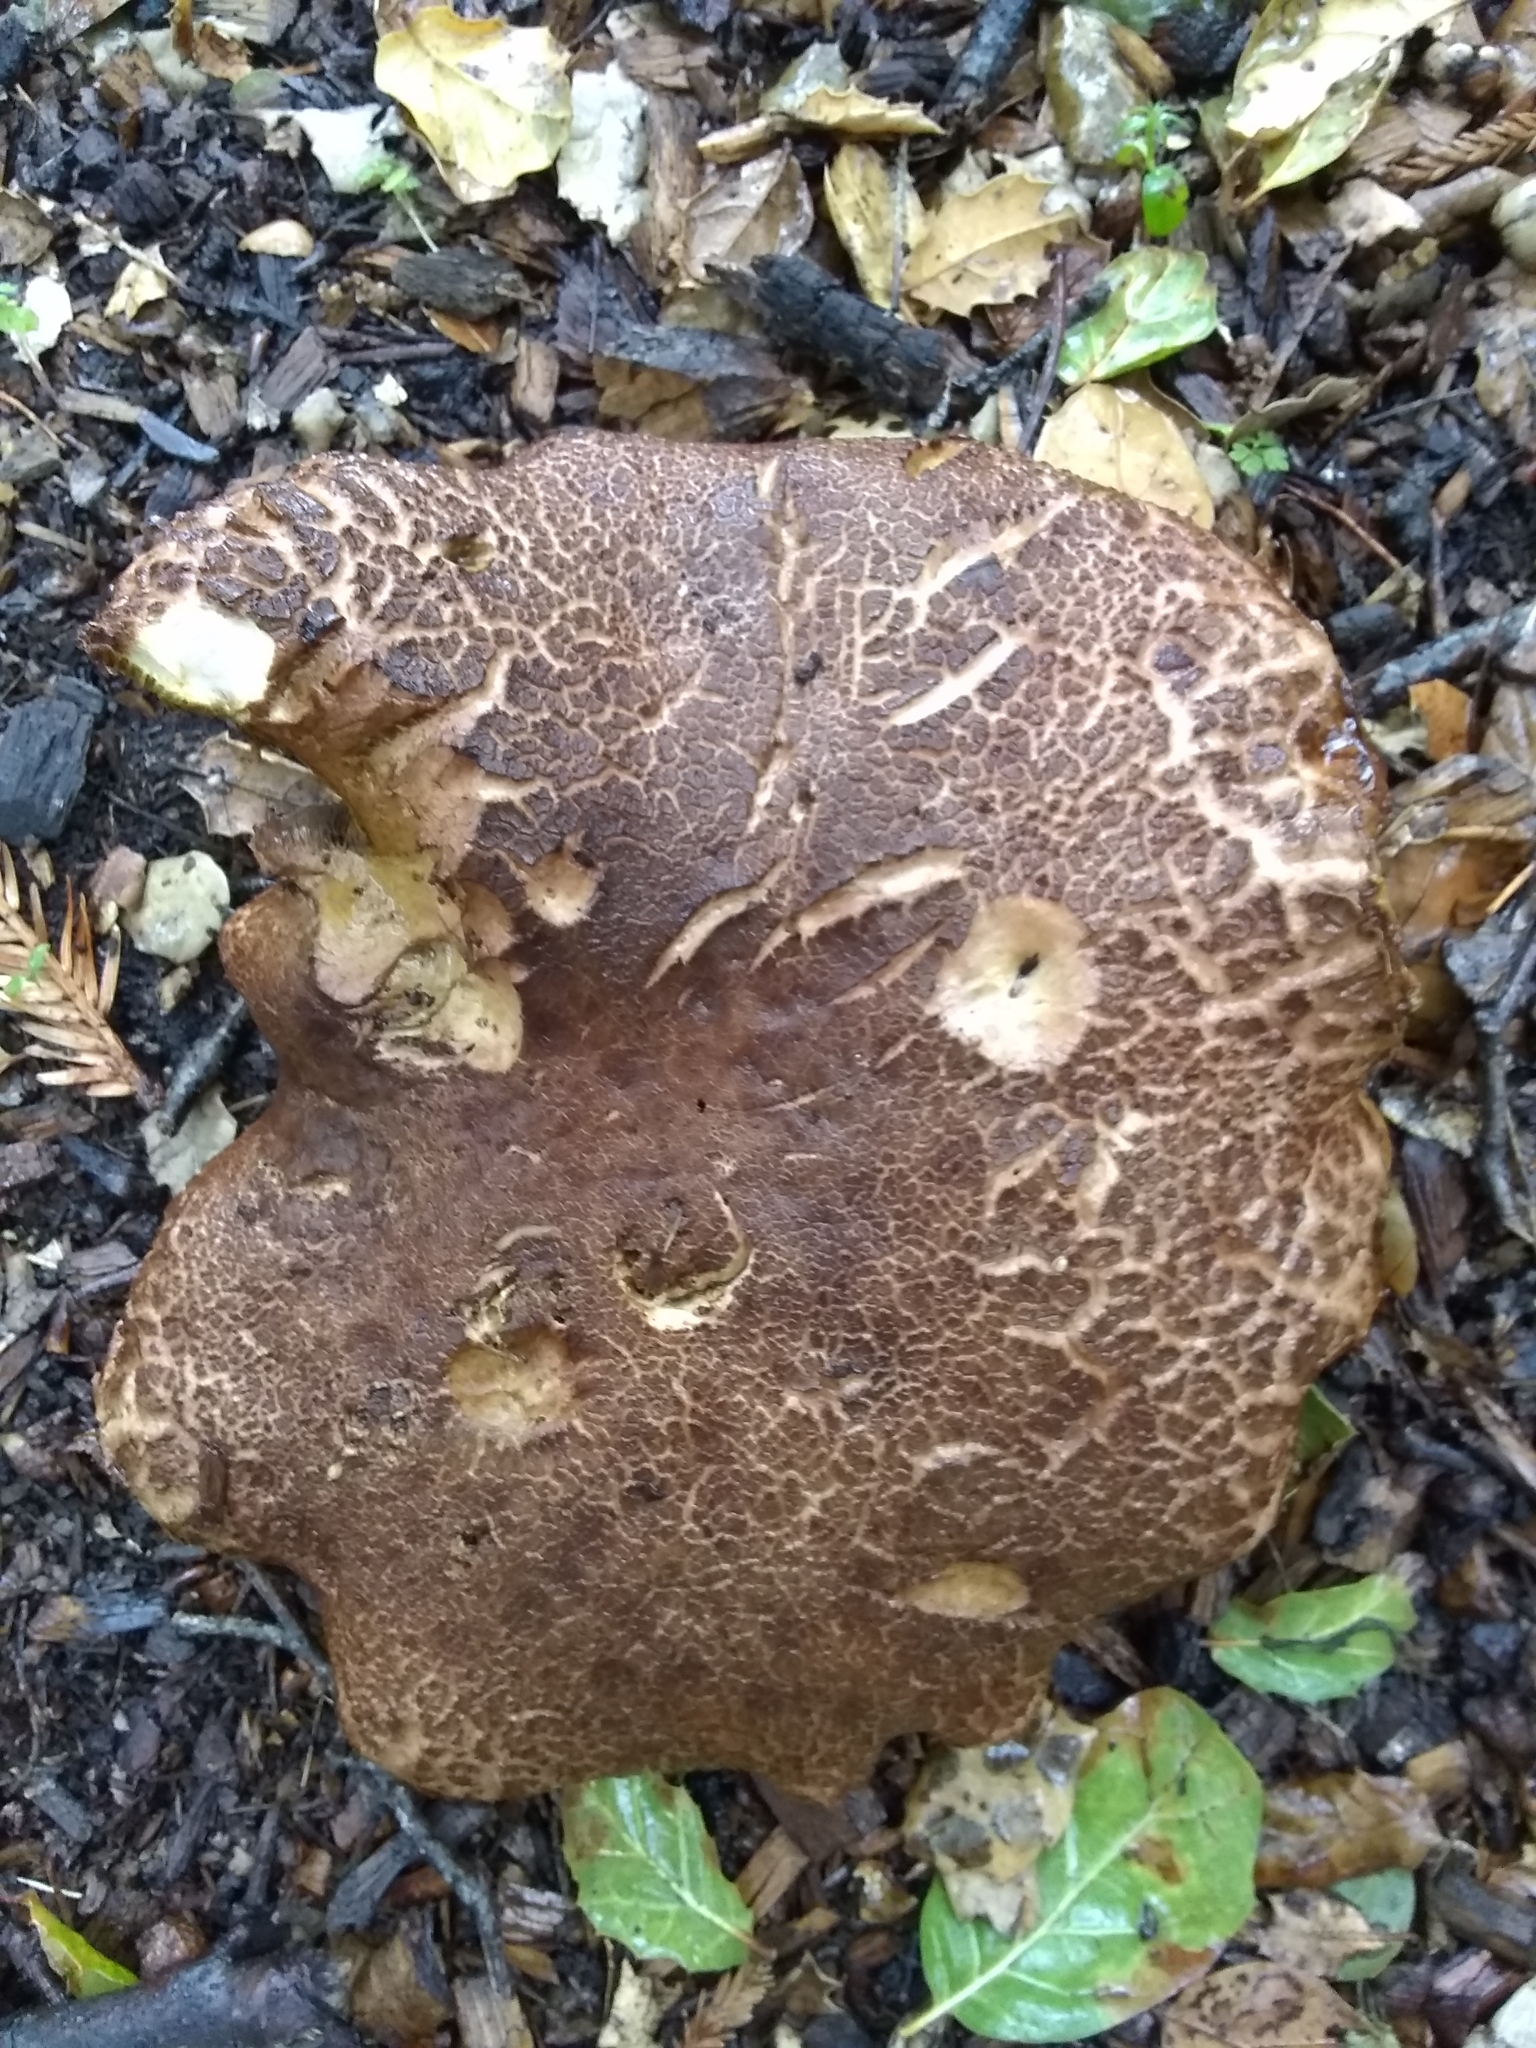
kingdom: Fungi
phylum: Basidiomycota
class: Agaricomycetes
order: Boletales
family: Boletaceae
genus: Xerocomus
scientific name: Xerocomus subtomentosus
